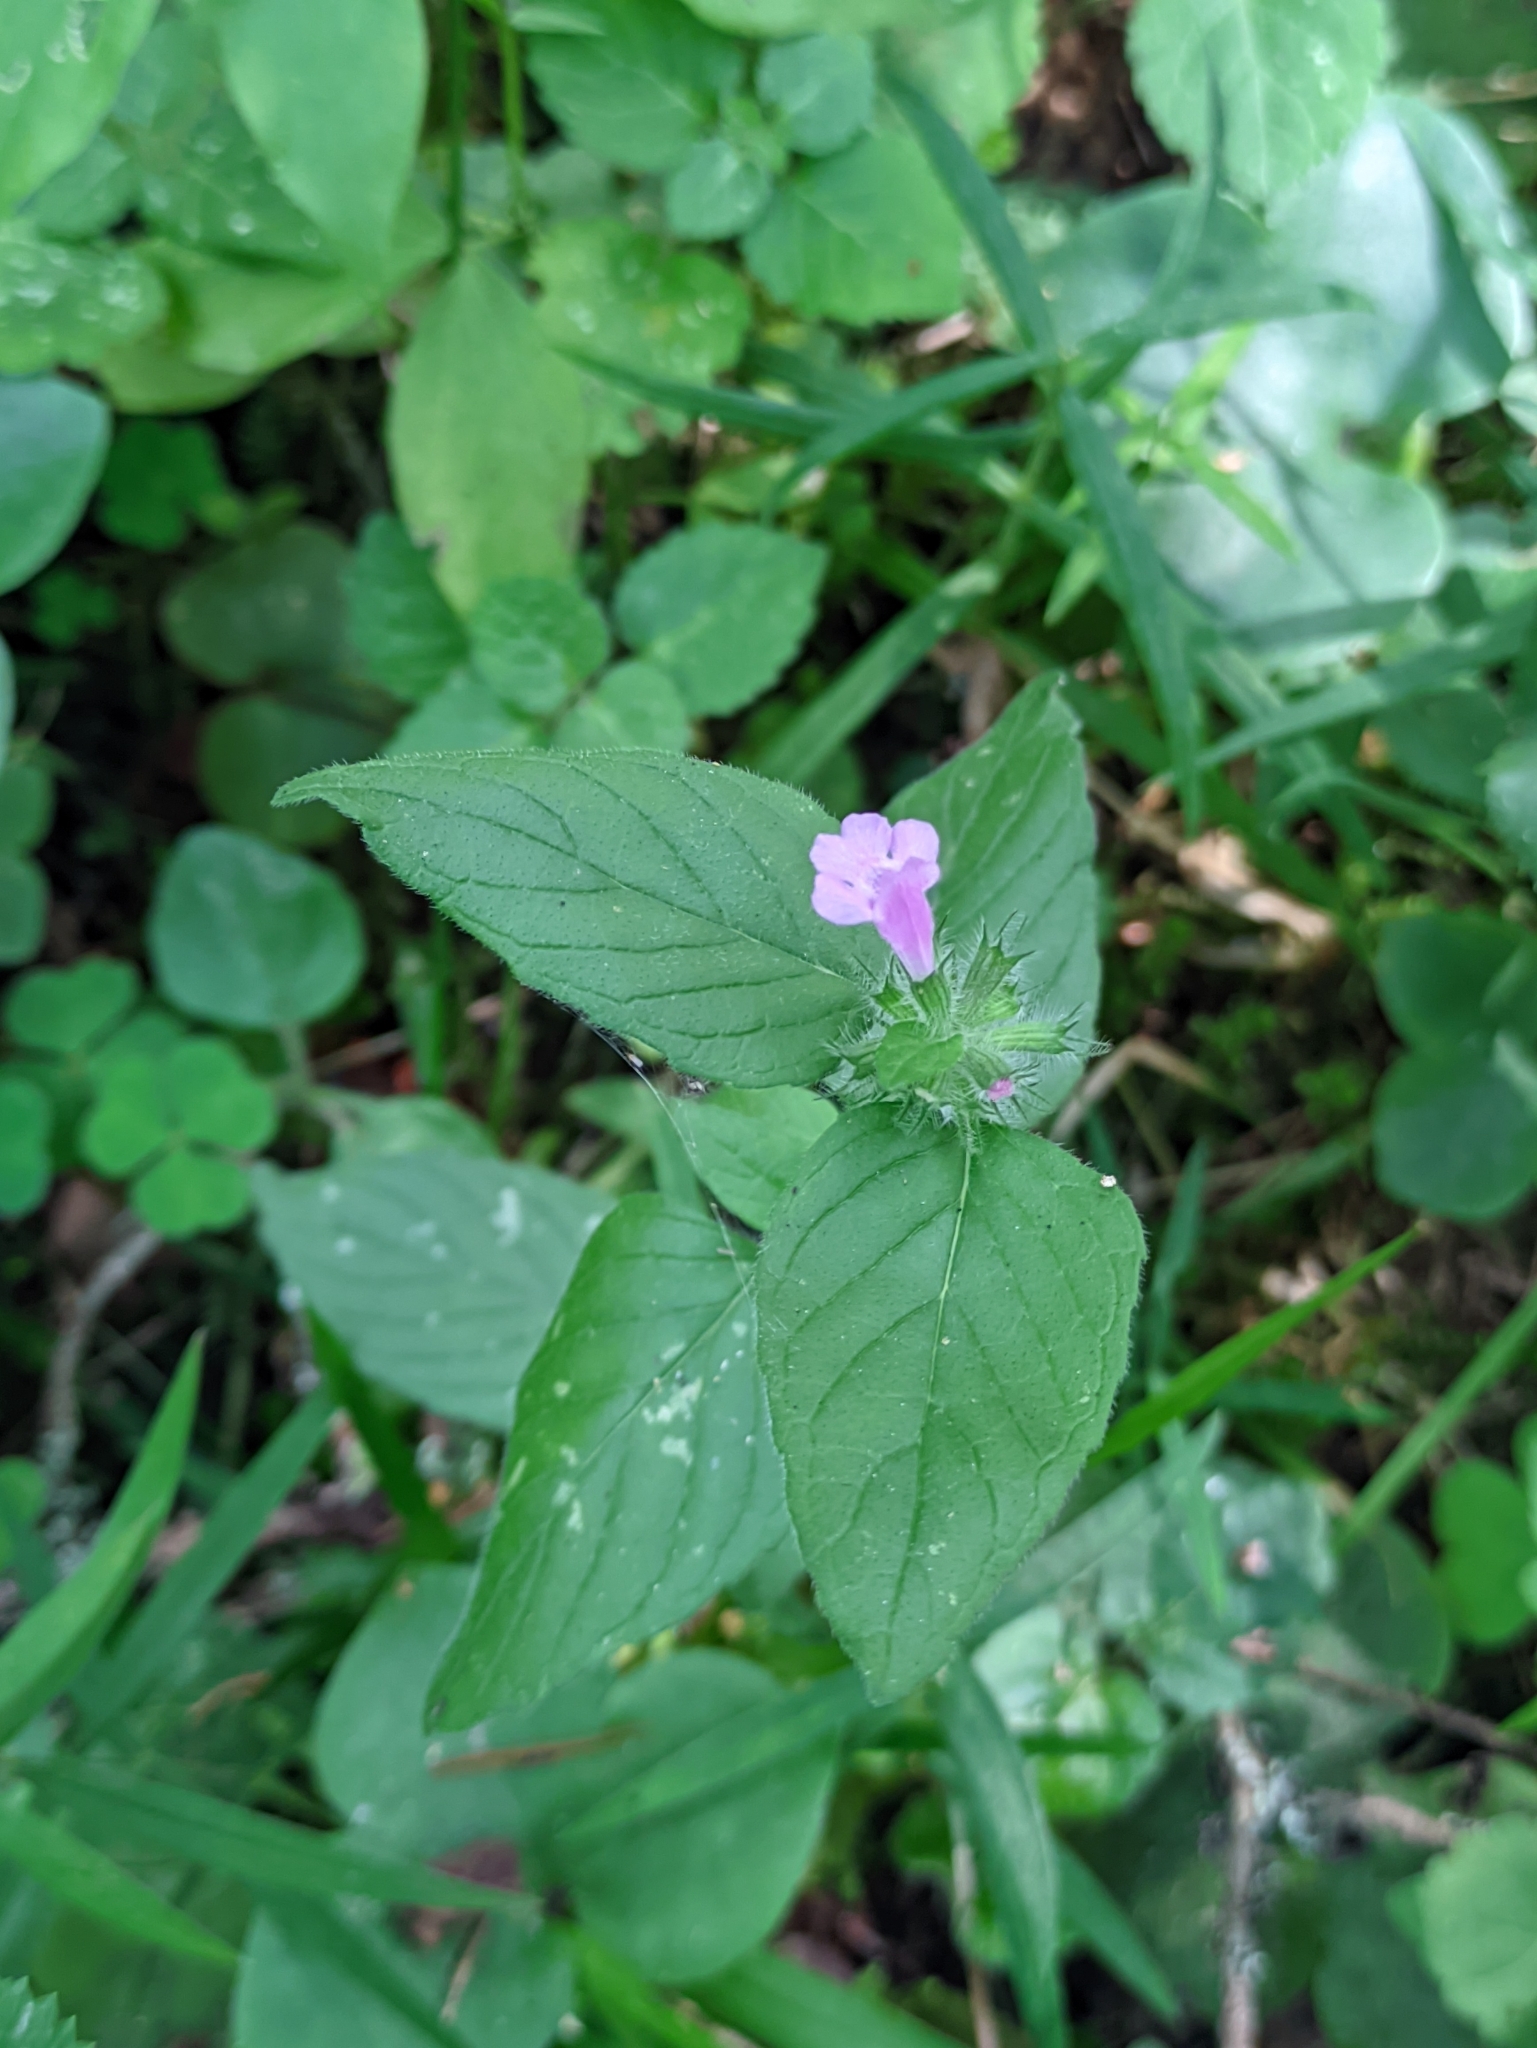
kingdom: Plantae
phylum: Tracheophyta
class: Magnoliopsida
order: Lamiales
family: Lamiaceae
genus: Clinopodium
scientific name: Clinopodium vulgare
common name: Wild basil
